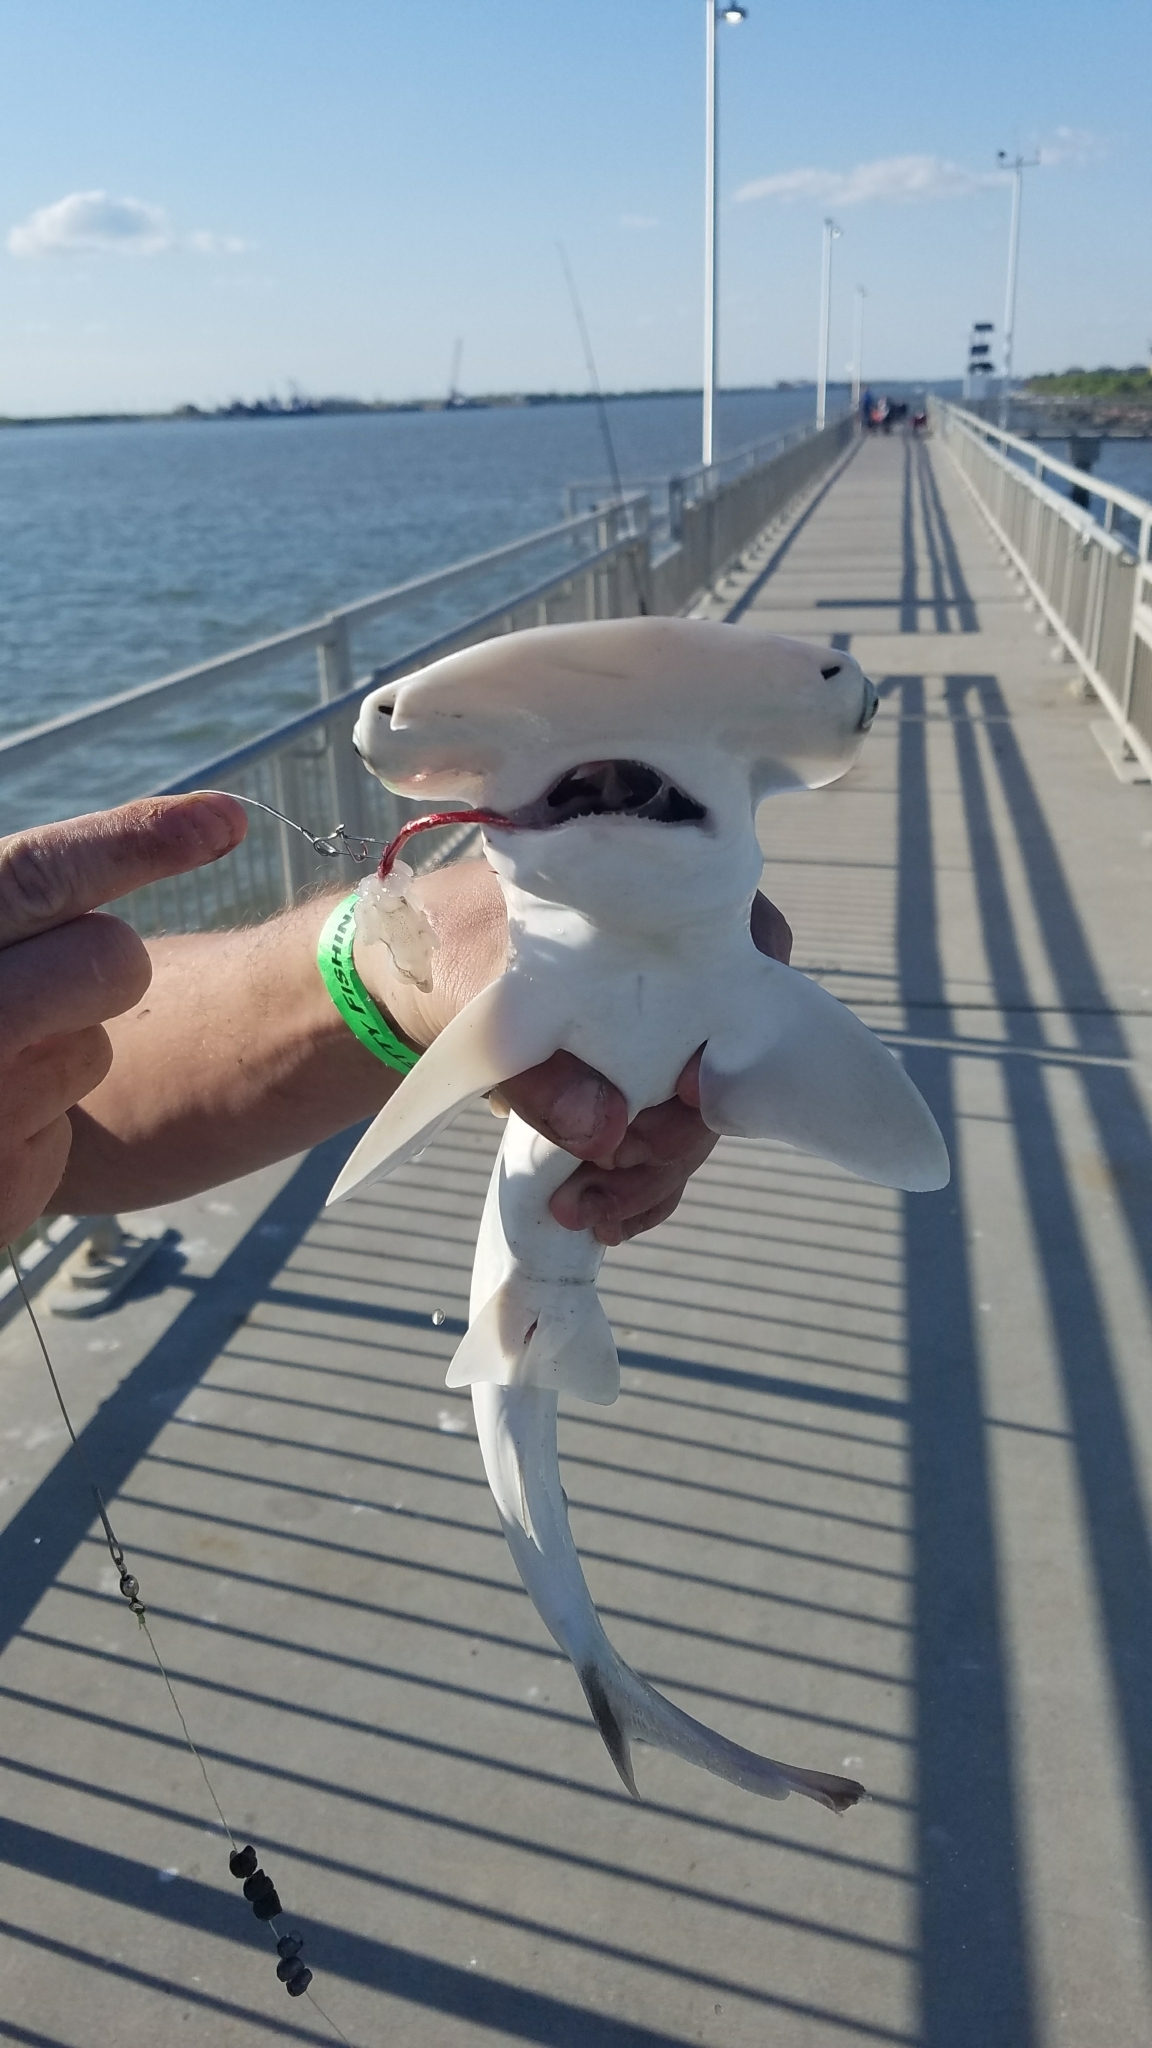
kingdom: Animalia
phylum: Chordata
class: Elasmobranchii
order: Carcharhiniformes
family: Sphyrnidae
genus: Sphyrna
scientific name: Sphyrna tiburo
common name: Bonnethead
